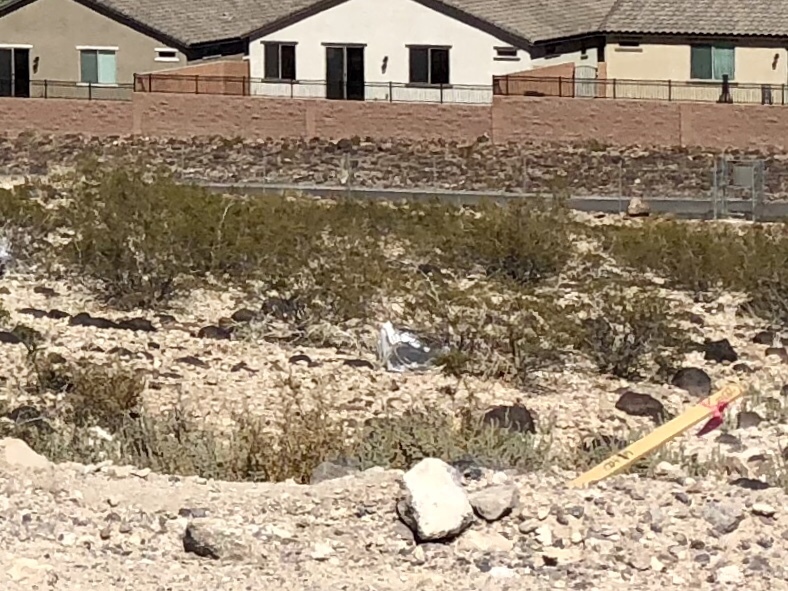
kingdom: Plantae
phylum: Tracheophyta
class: Magnoliopsida
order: Zygophyllales
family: Zygophyllaceae
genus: Larrea
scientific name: Larrea tridentata
